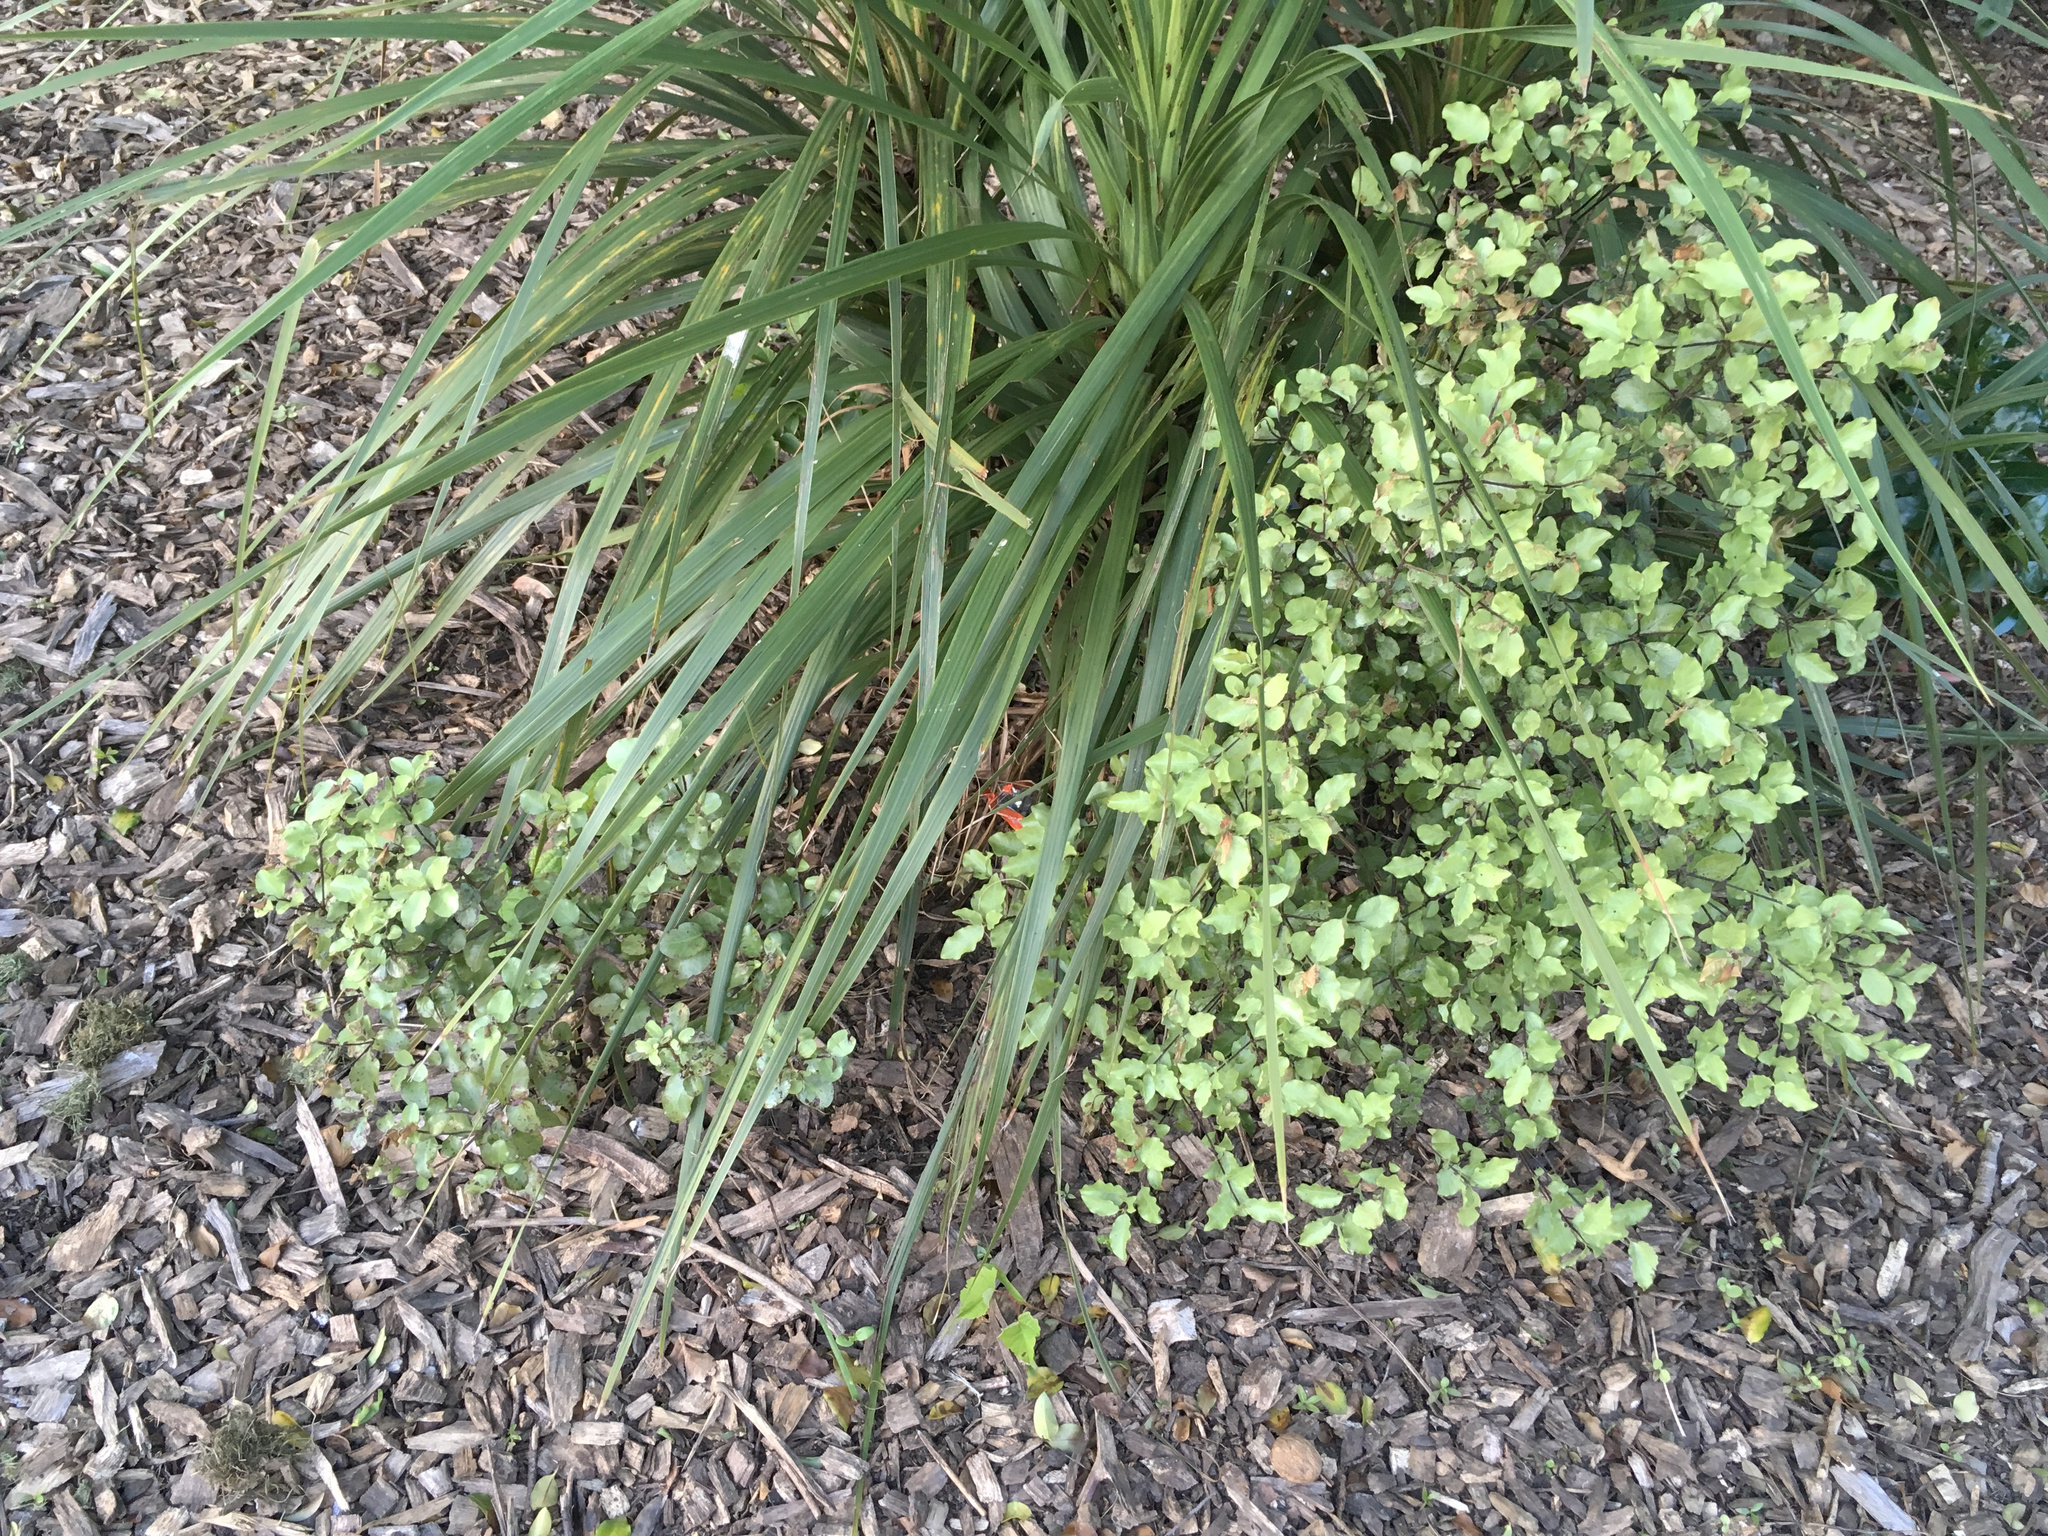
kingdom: Plantae
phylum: Tracheophyta
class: Magnoliopsida
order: Apiales
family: Pittosporaceae
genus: Pittosporum
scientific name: Pittosporum tenuifolium
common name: Kohuhu
